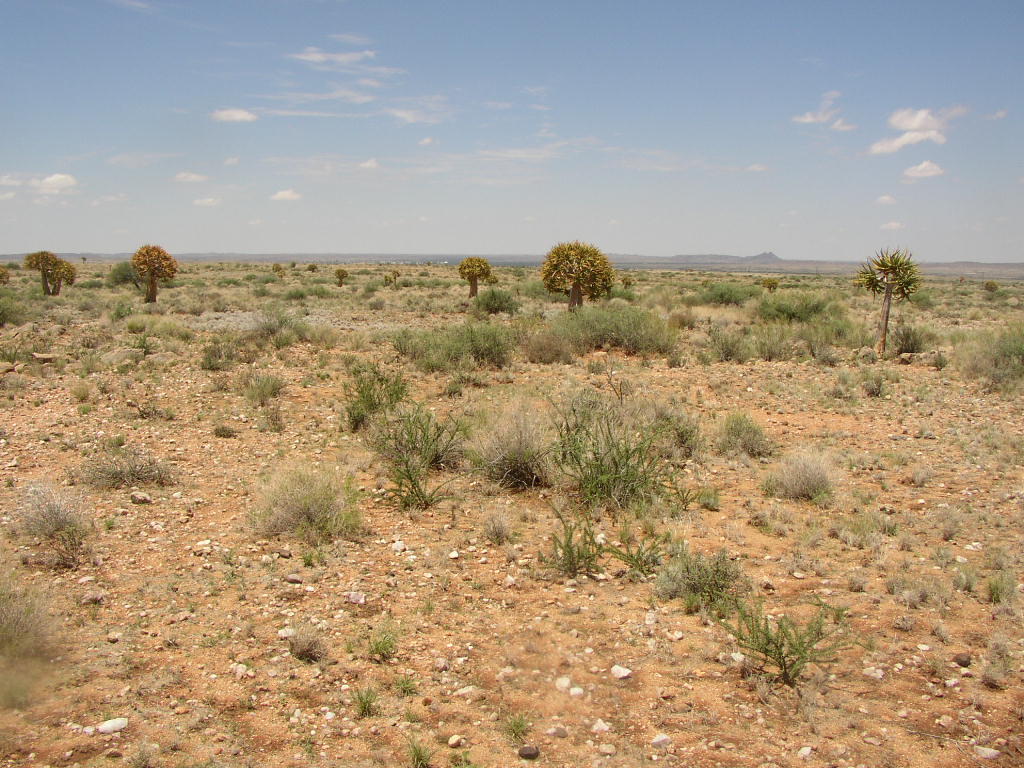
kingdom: Plantae
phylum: Tracheophyta
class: Liliopsida
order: Asparagales
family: Asphodelaceae
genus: Aloidendron
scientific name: Aloidendron dichotomum
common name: Quiver tree
